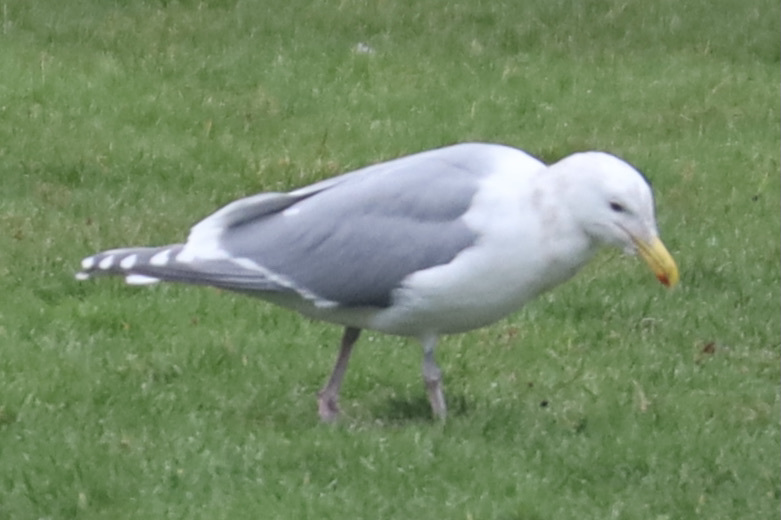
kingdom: Animalia
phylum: Chordata
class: Aves
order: Charadriiformes
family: Laridae
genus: Larus
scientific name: Larus
